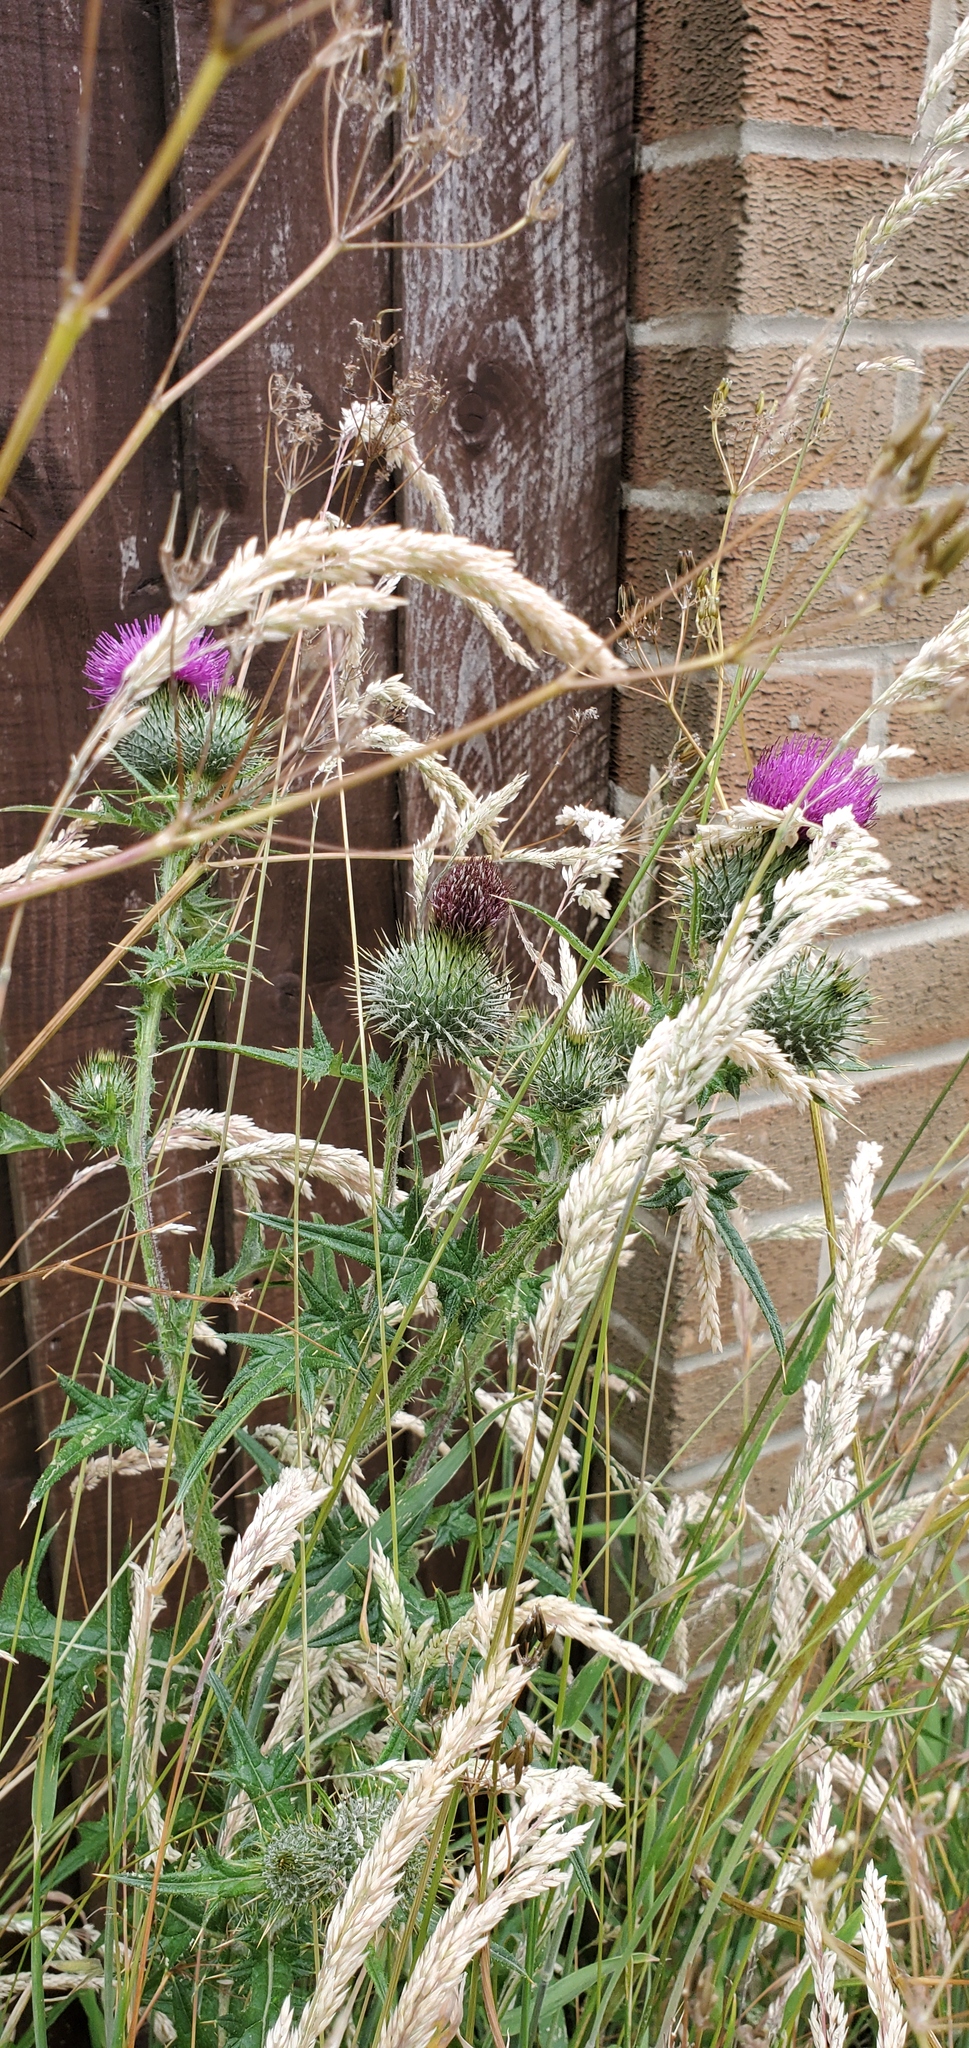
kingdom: Plantae
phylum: Tracheophyta
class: Magnoliopsida
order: Asterales
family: Asteraceae
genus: Cirsium
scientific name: Cirsium vulgare
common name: Bull thistle
